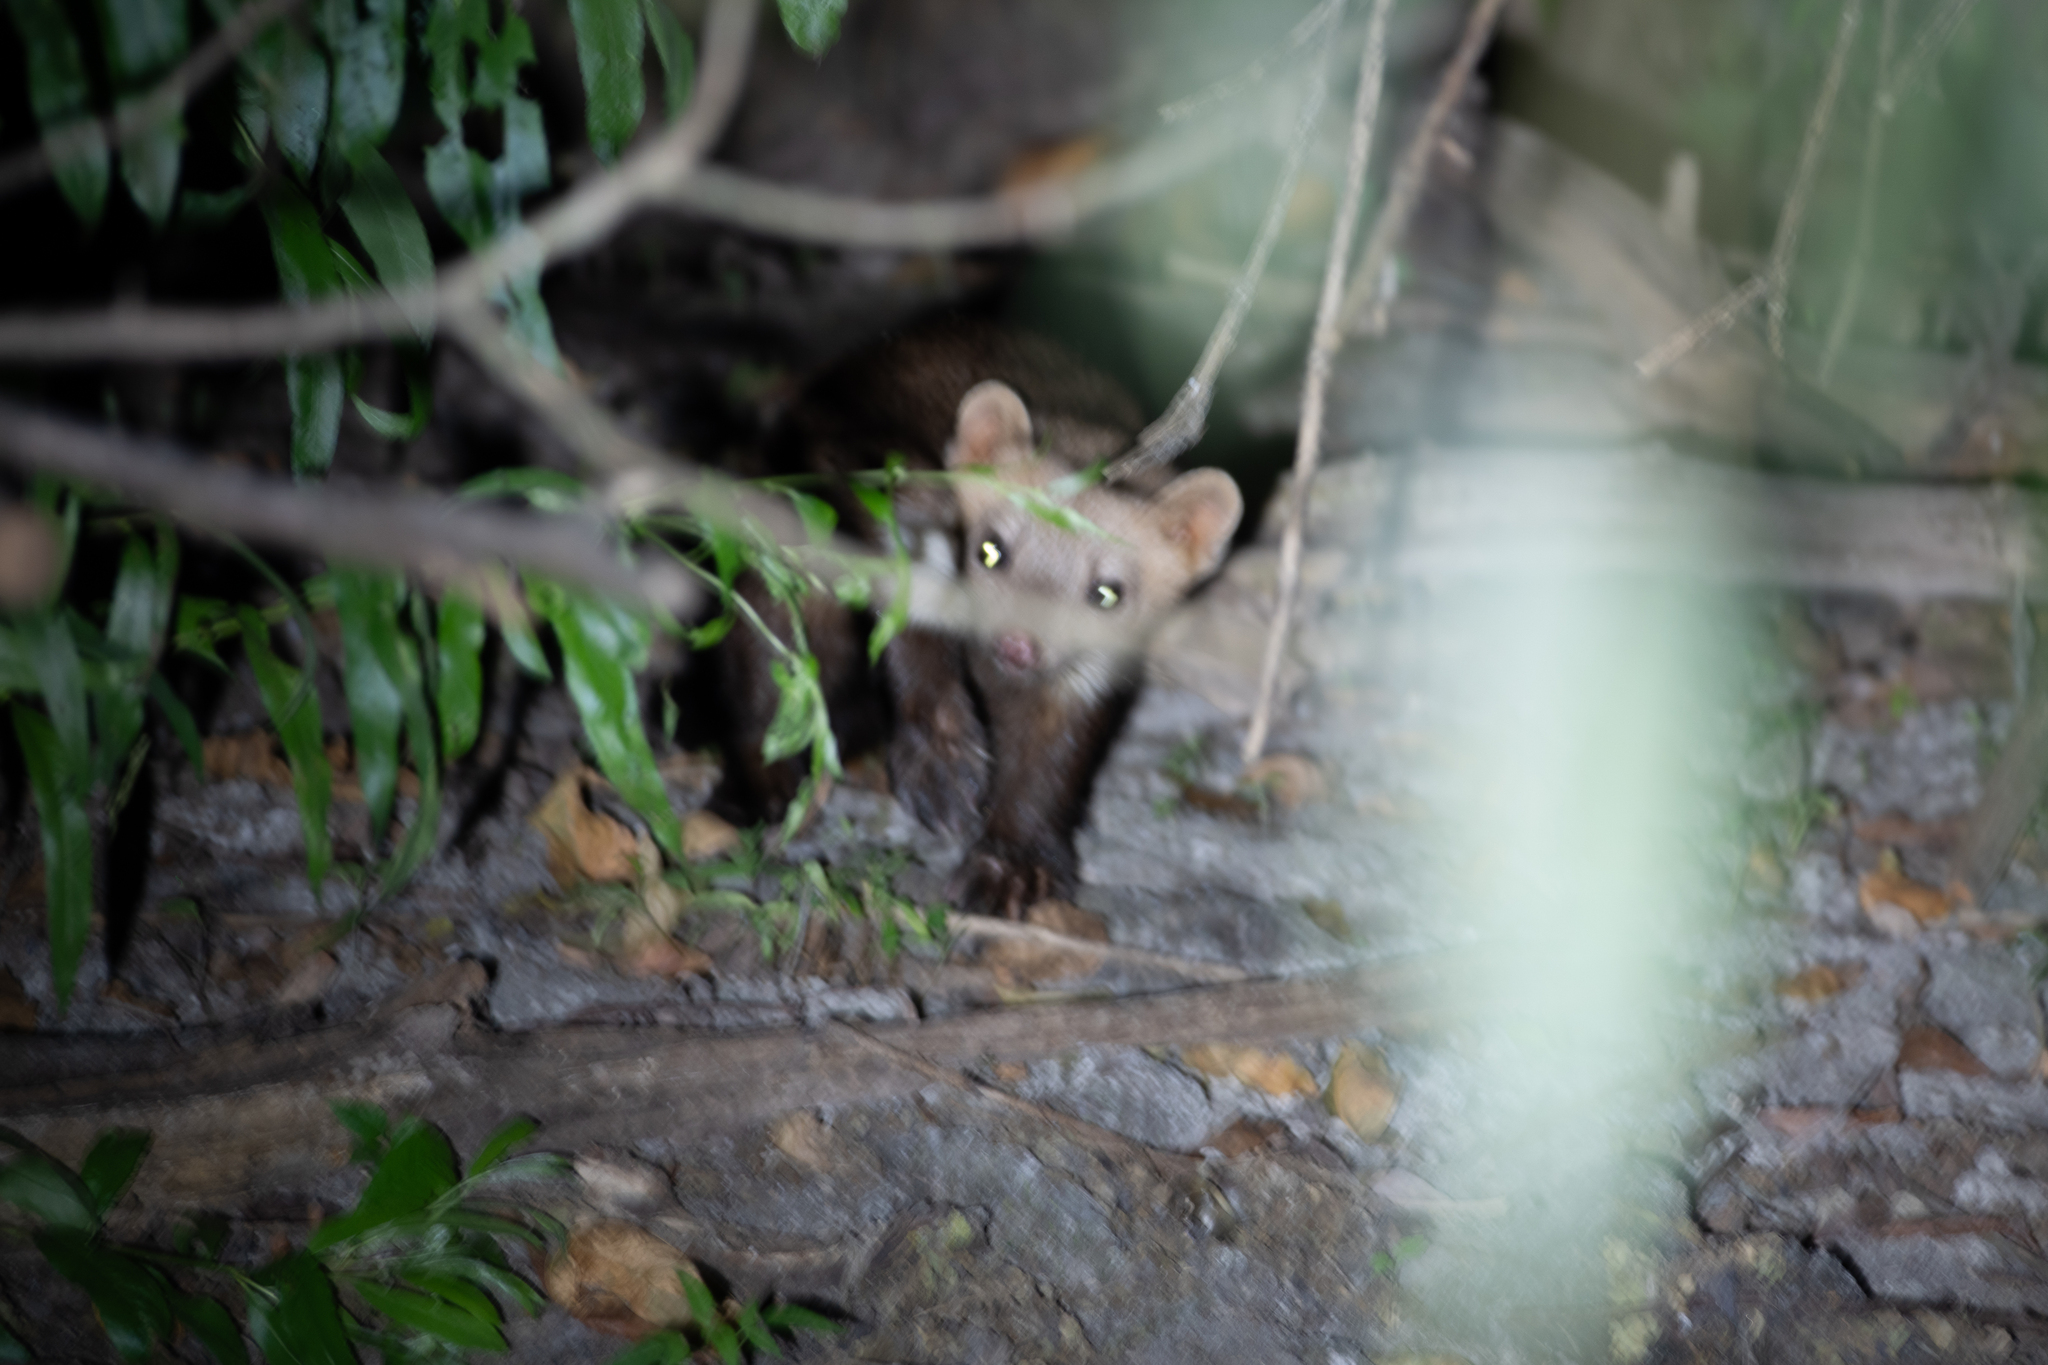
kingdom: Animalia
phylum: Chordata
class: Mammalia
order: Carnivora
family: Mustelidae
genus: Martes
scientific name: Martes foina
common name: Beech marten
